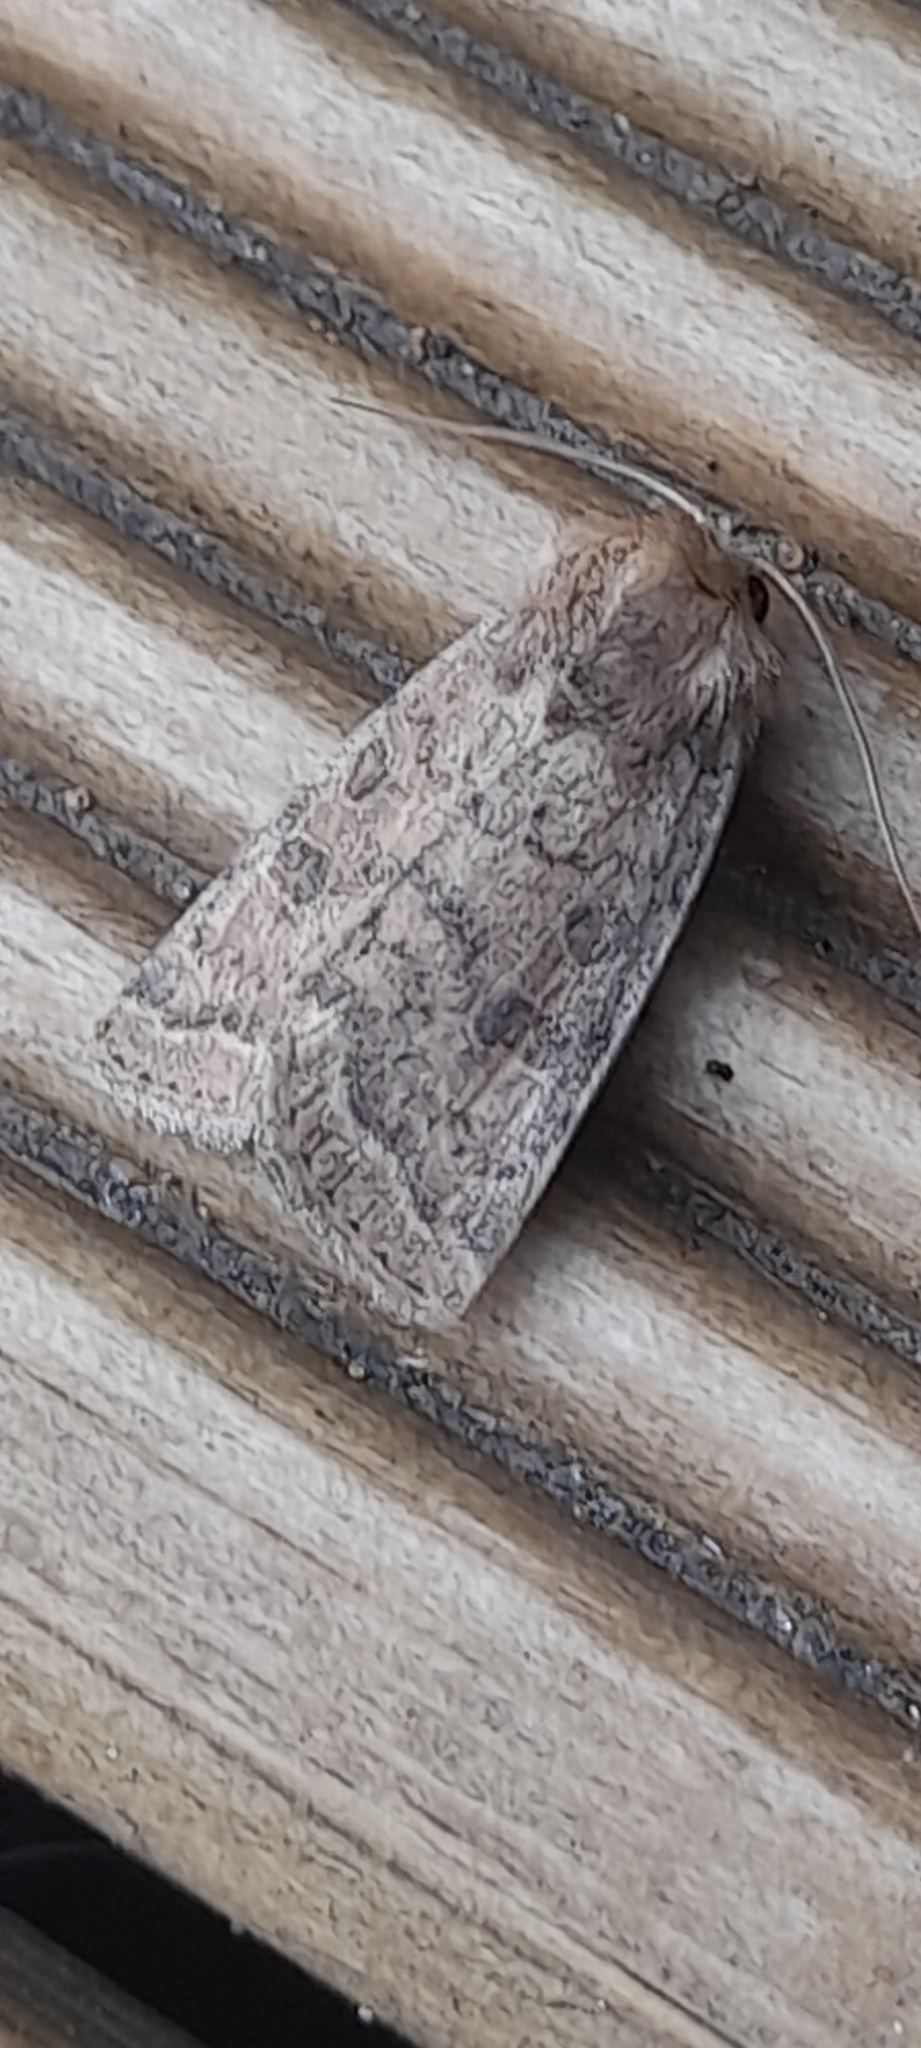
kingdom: Animalia
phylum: Arthropoda
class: Insecta
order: Lepidoptera
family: Noctuidae
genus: Hoplodrina
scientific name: Hoplodrina octogenaria
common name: Uncertain
